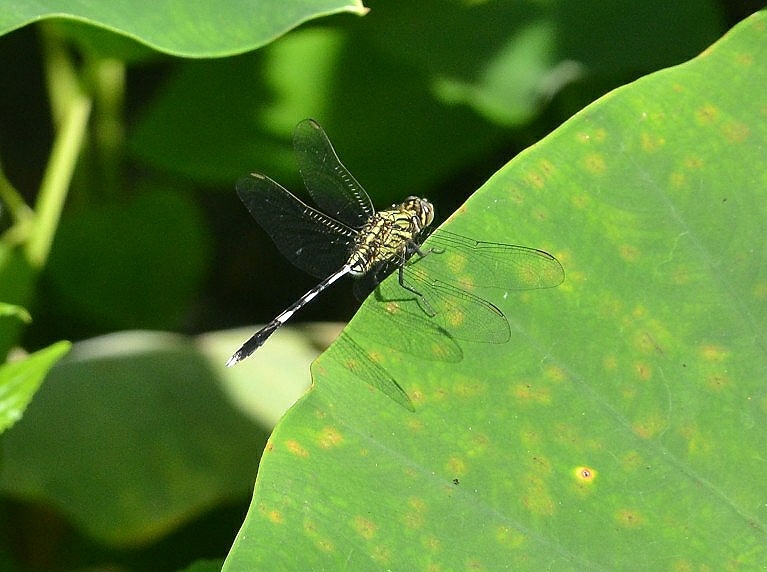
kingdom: Animalia
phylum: Arthropoda
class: Insecta
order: Odonata
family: Libellulidae
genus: Orthetrum
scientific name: Orthetrum sabina
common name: Slender skimmer
